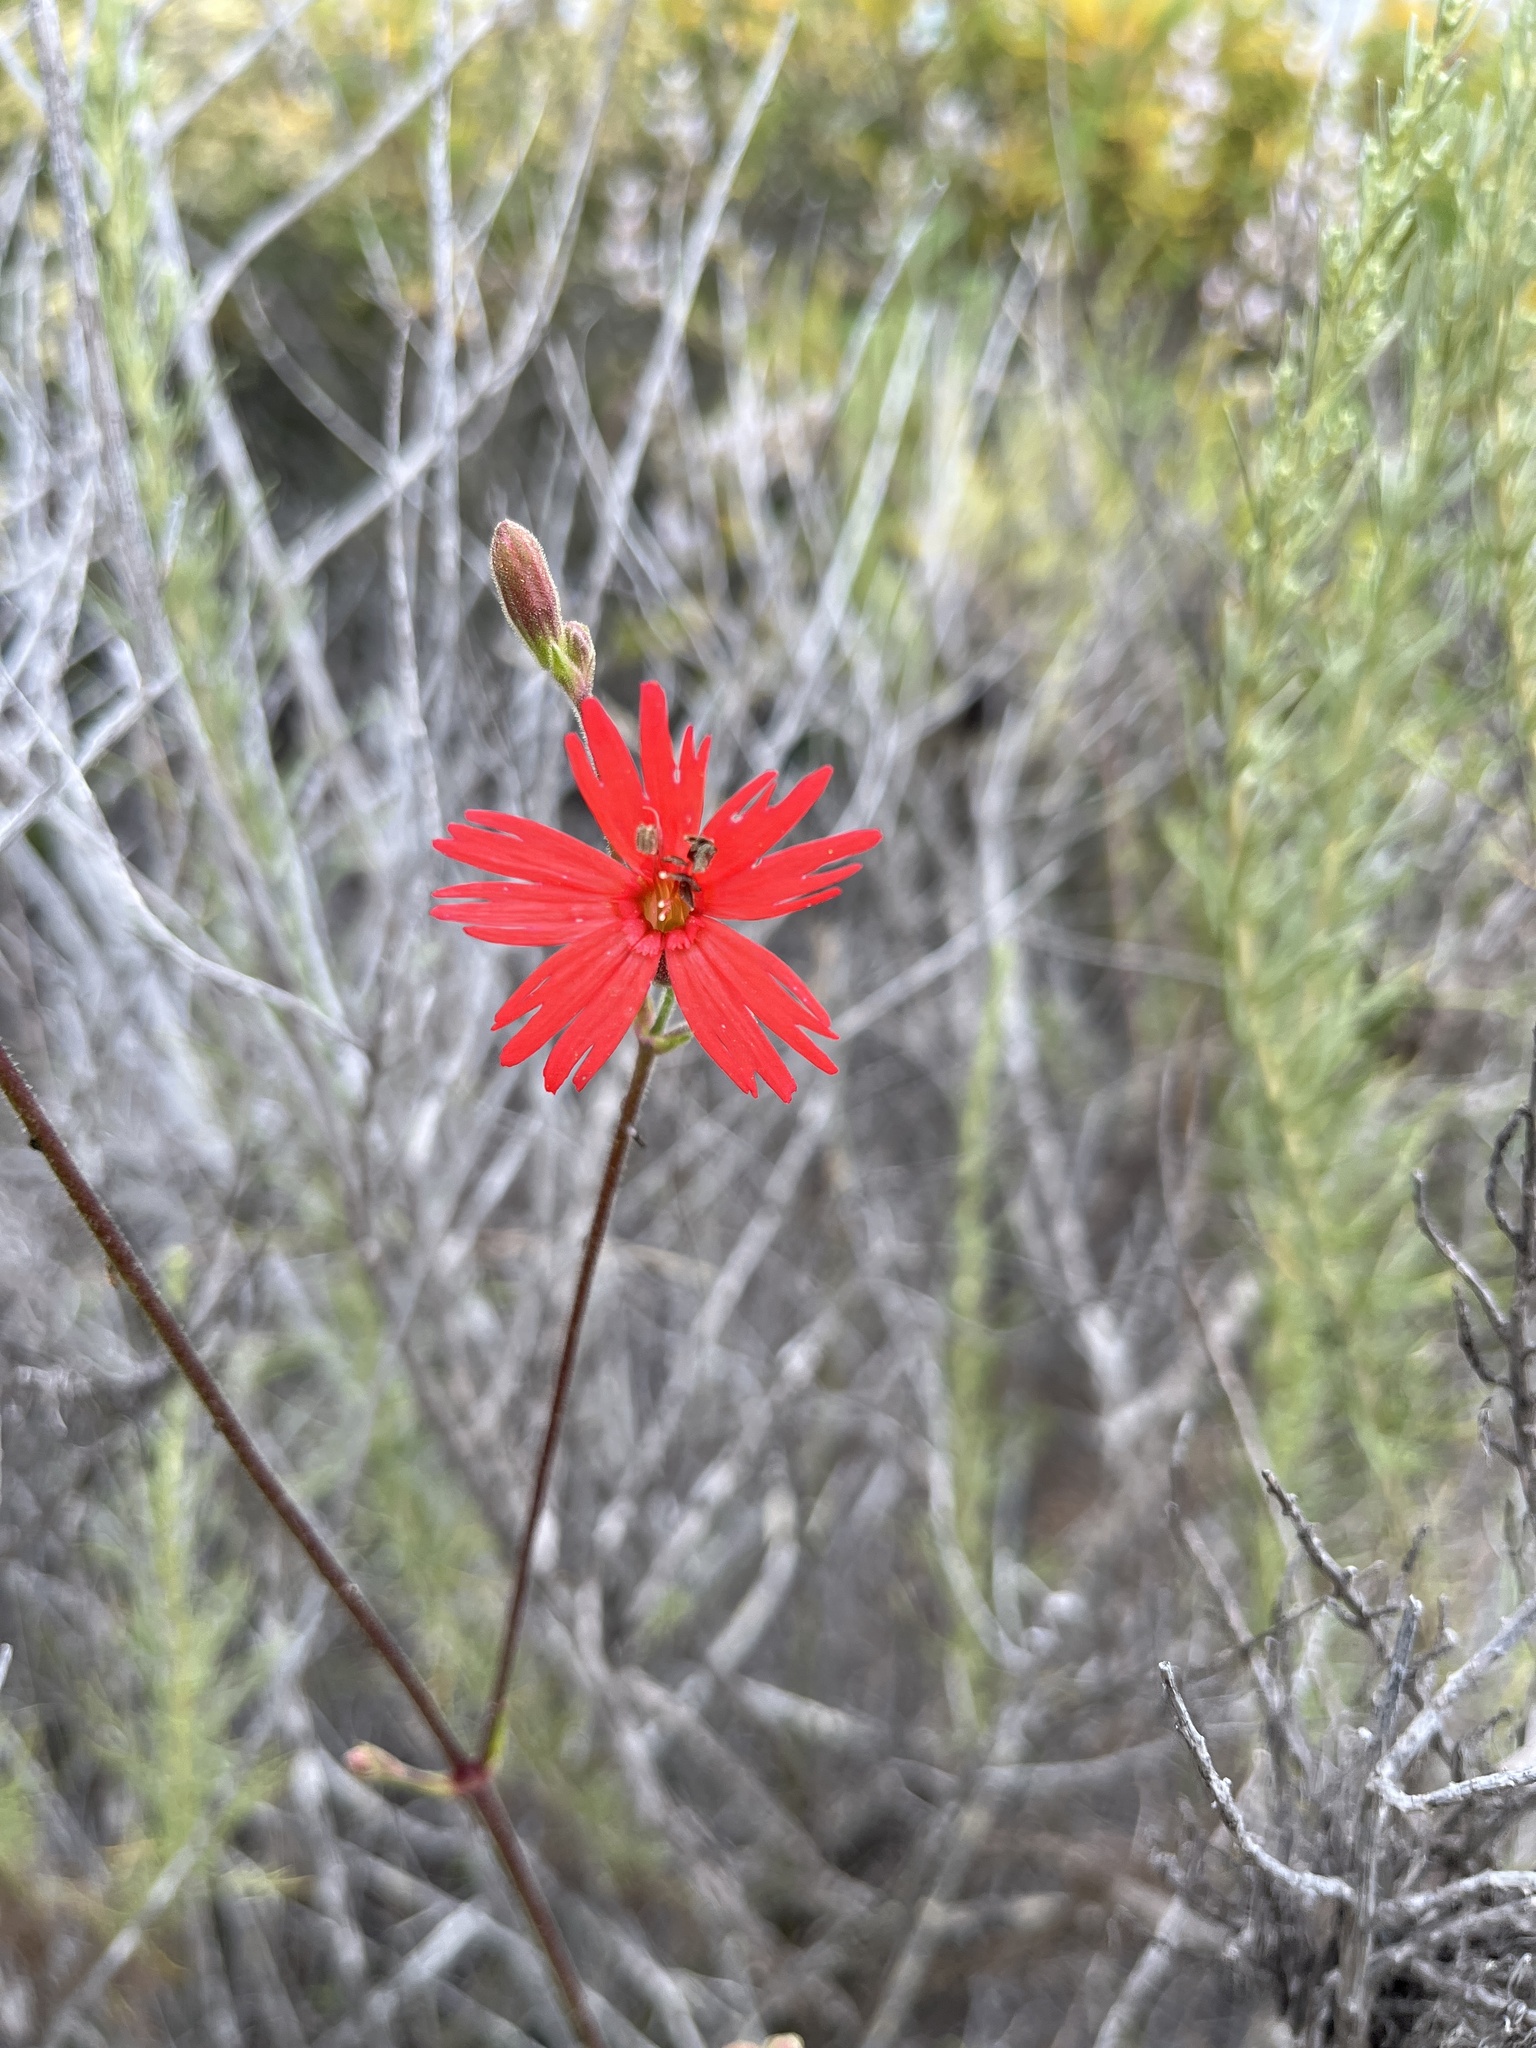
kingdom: Plantae
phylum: Tracheophyta
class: Magnoliopsida
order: Caryophyllales
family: Caryophyllaceae
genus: Silene
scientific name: Silene laciniata
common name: Indian-pink
